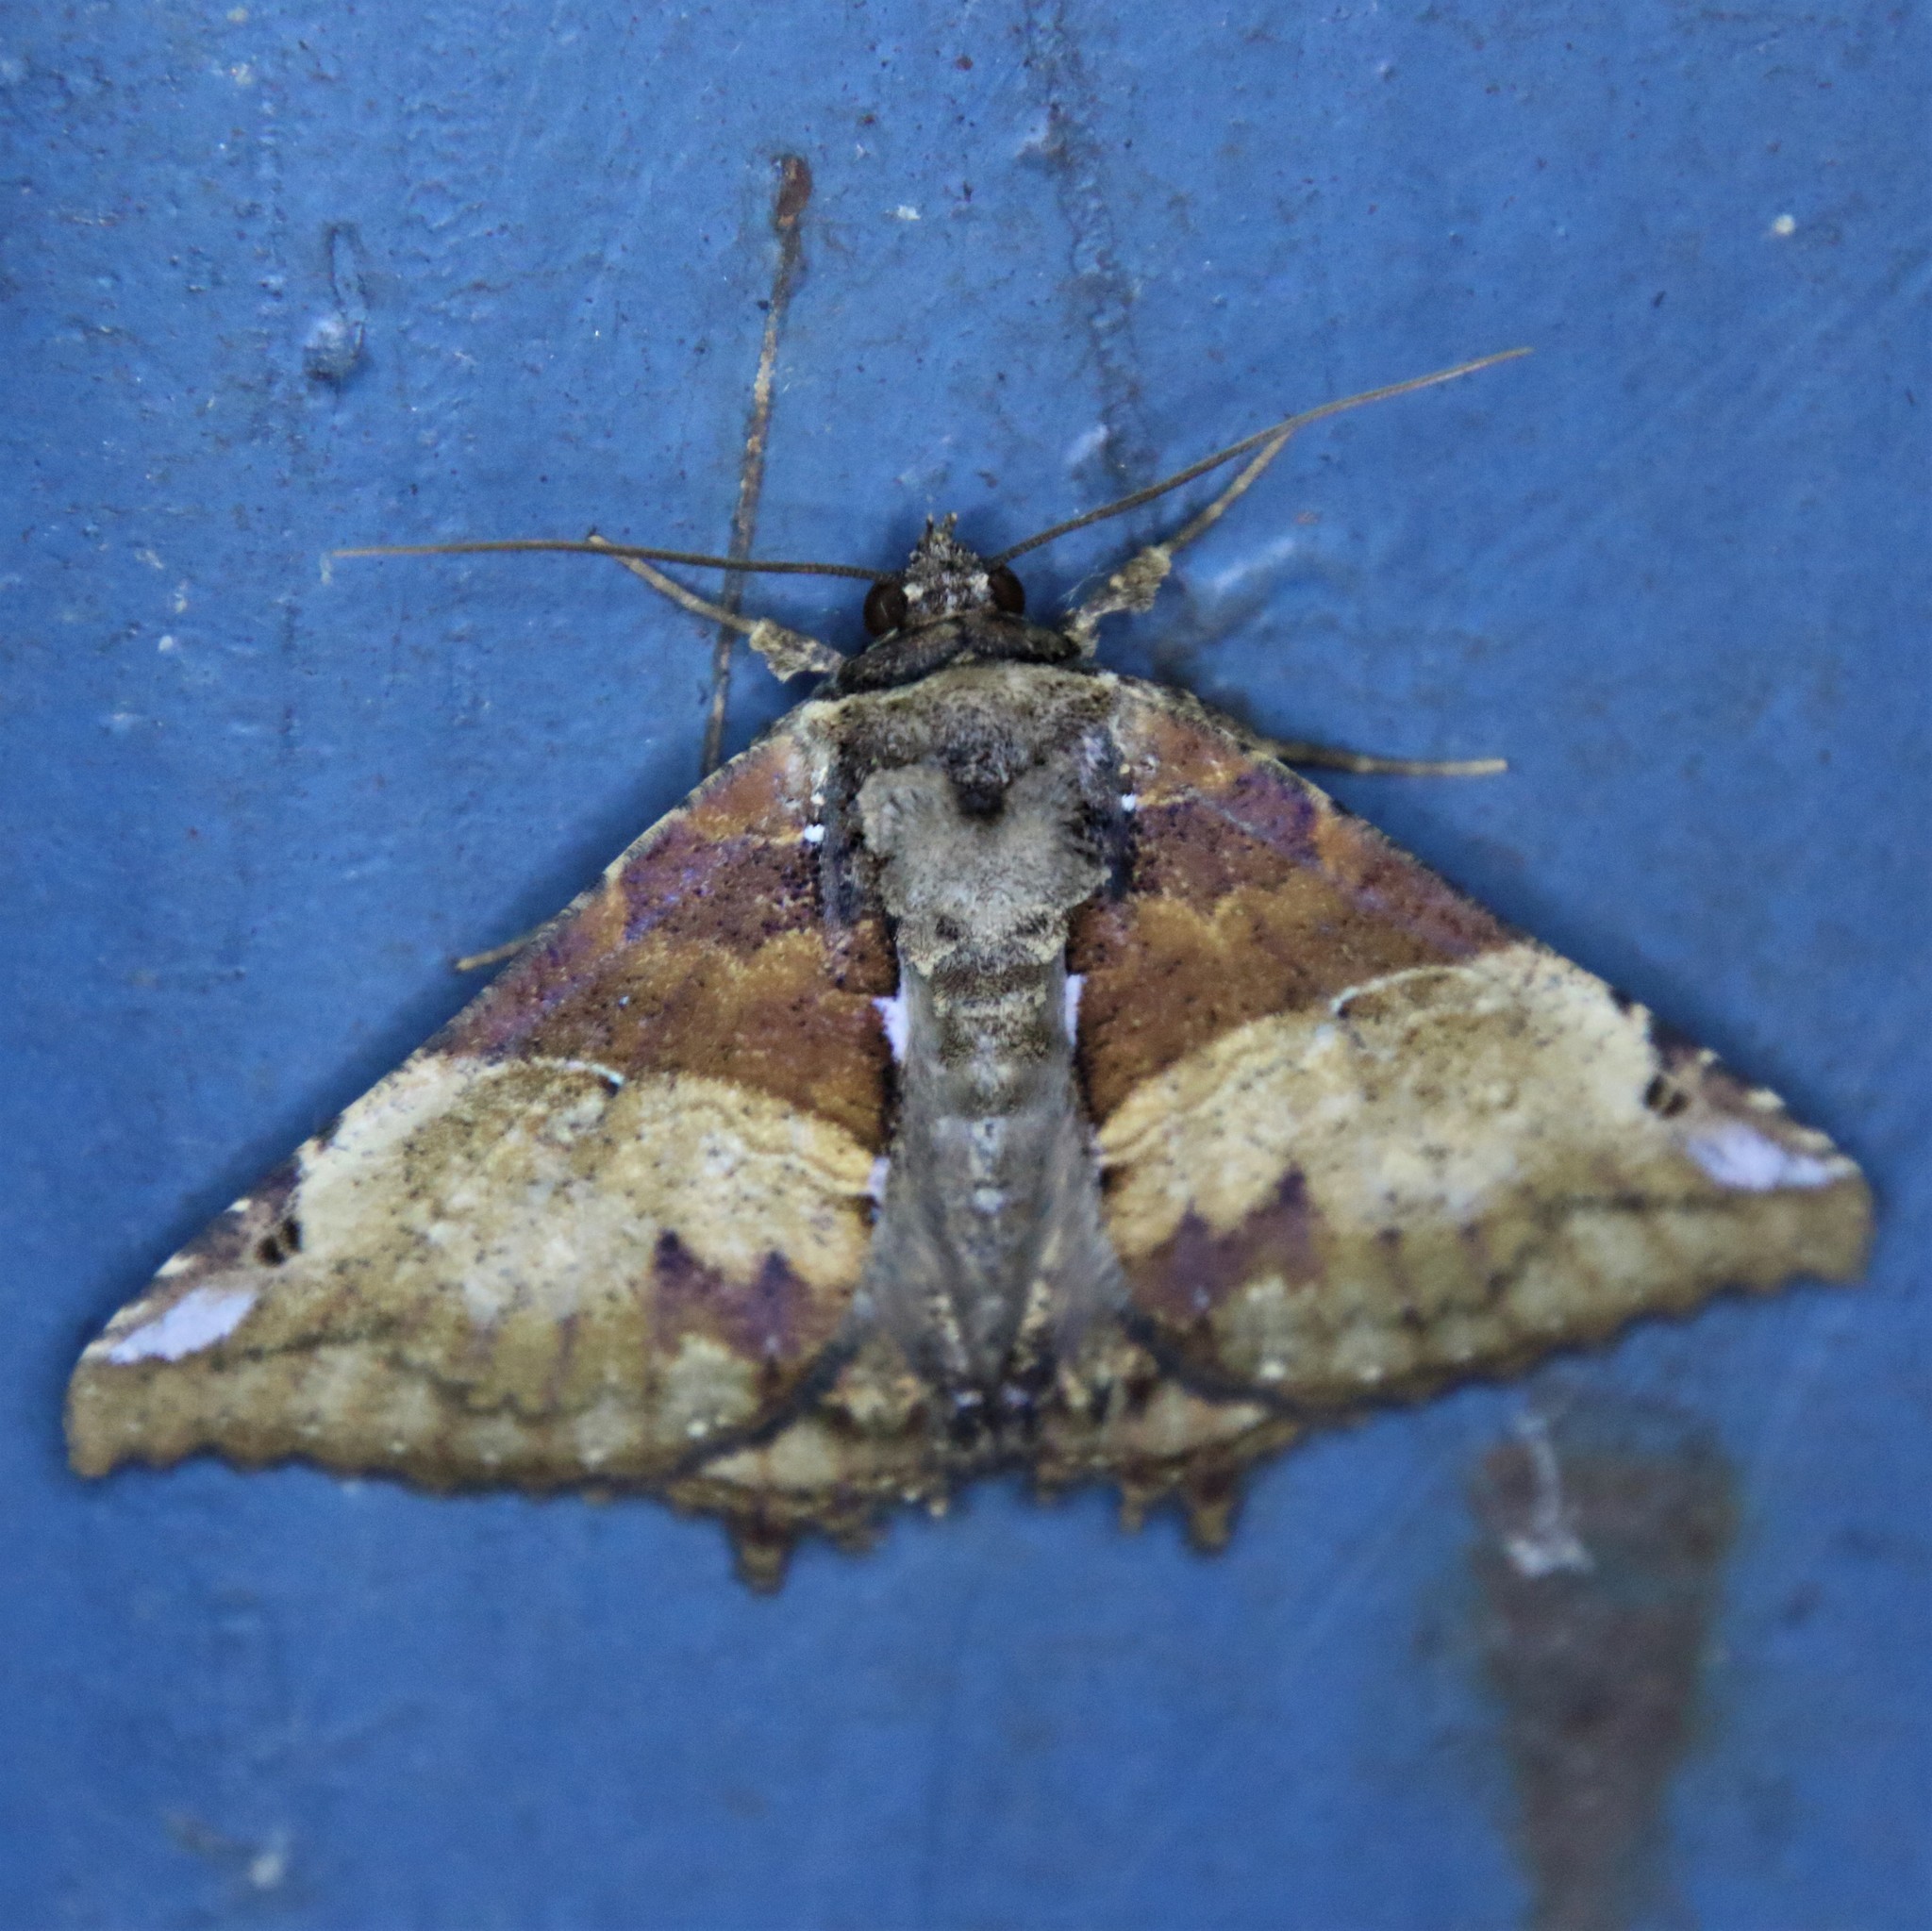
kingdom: Animalia
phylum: Arthropoda
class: Insecta
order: Lepidoptera
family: Erebidae
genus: Daddala
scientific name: Daddala brevicauda
